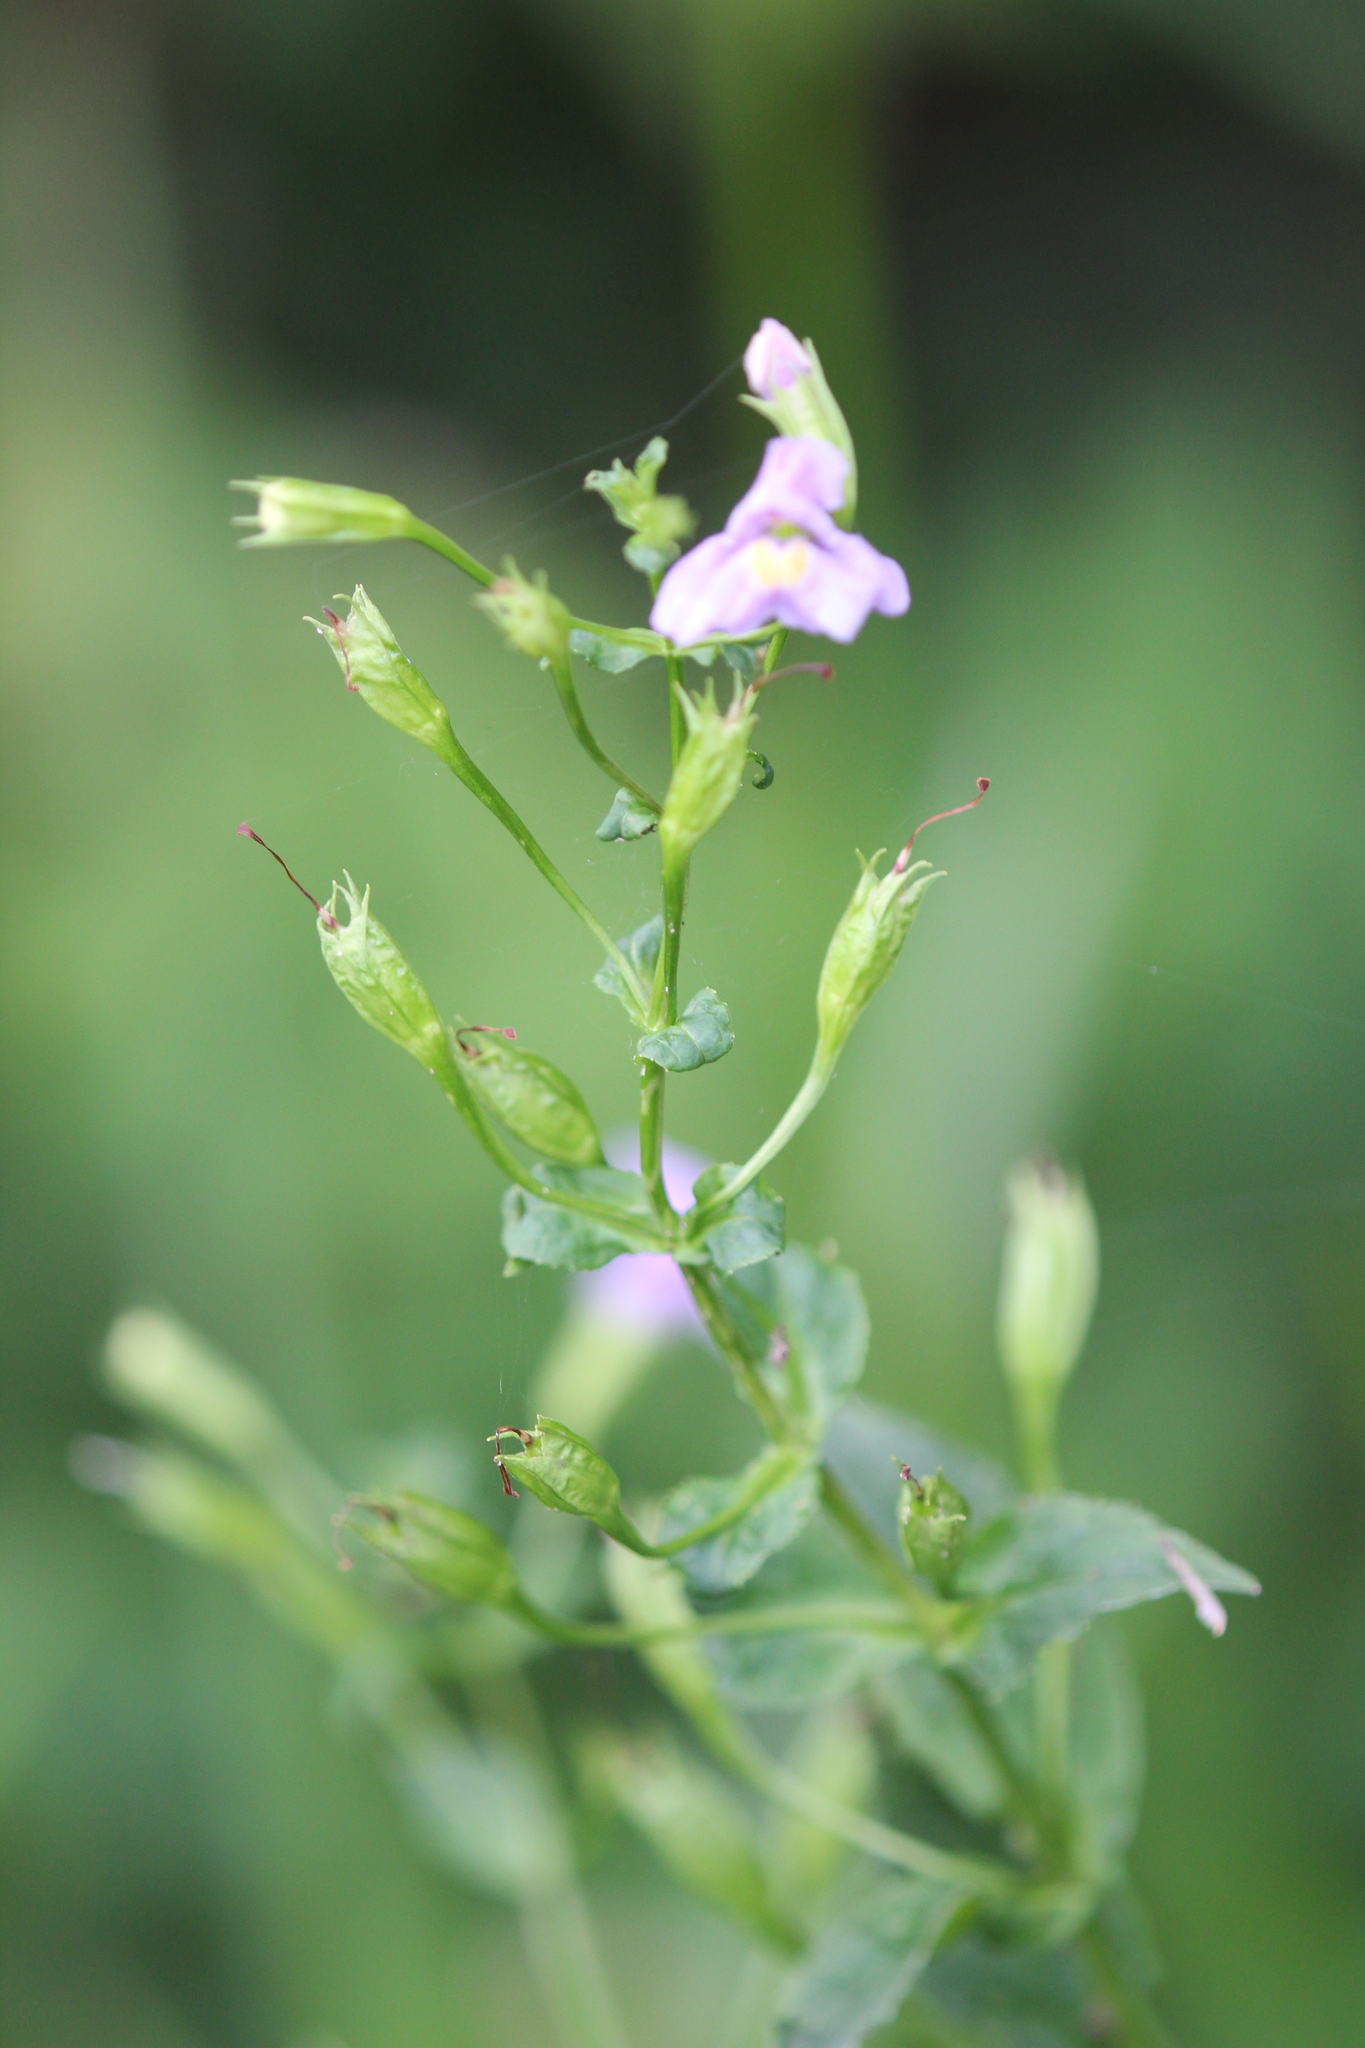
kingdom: Plantae
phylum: Tracheophyta
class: Magnoliopsida
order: Lamiales
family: Phrymaceae
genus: Mimulus
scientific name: Mimulus ringens
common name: Allegheny monkeyflower
